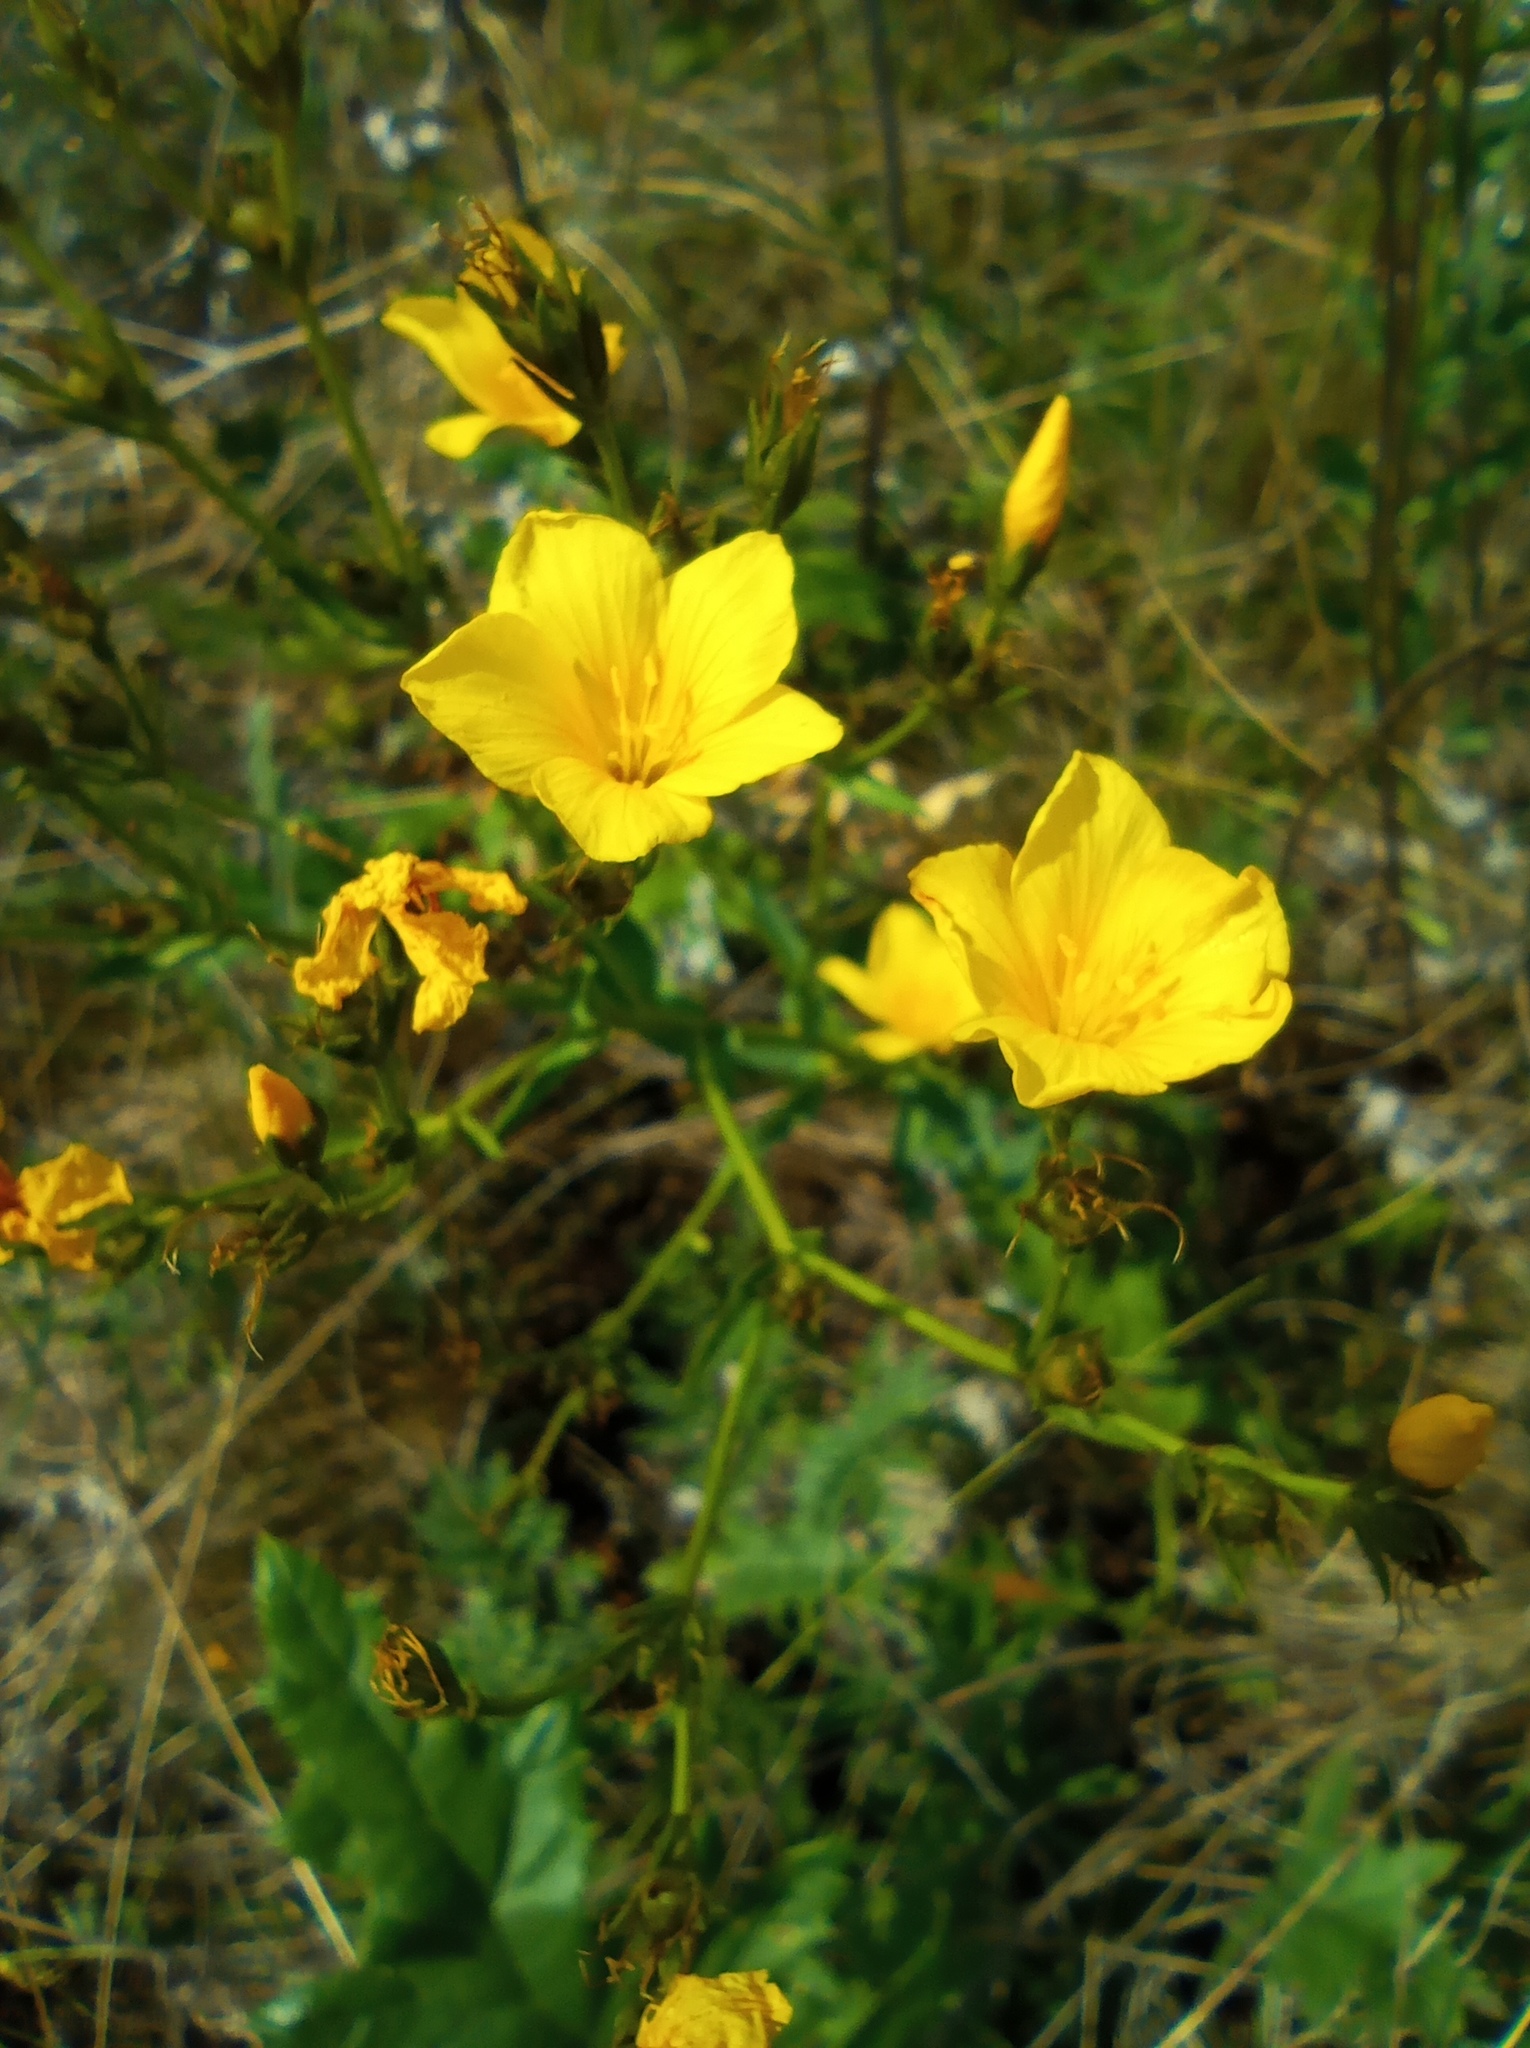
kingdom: Plantae
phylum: Tracheophyta
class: Magnoliopsida
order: Malpighiales
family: Linaceae
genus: Linum
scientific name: Linum flavum
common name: Yellow flax
